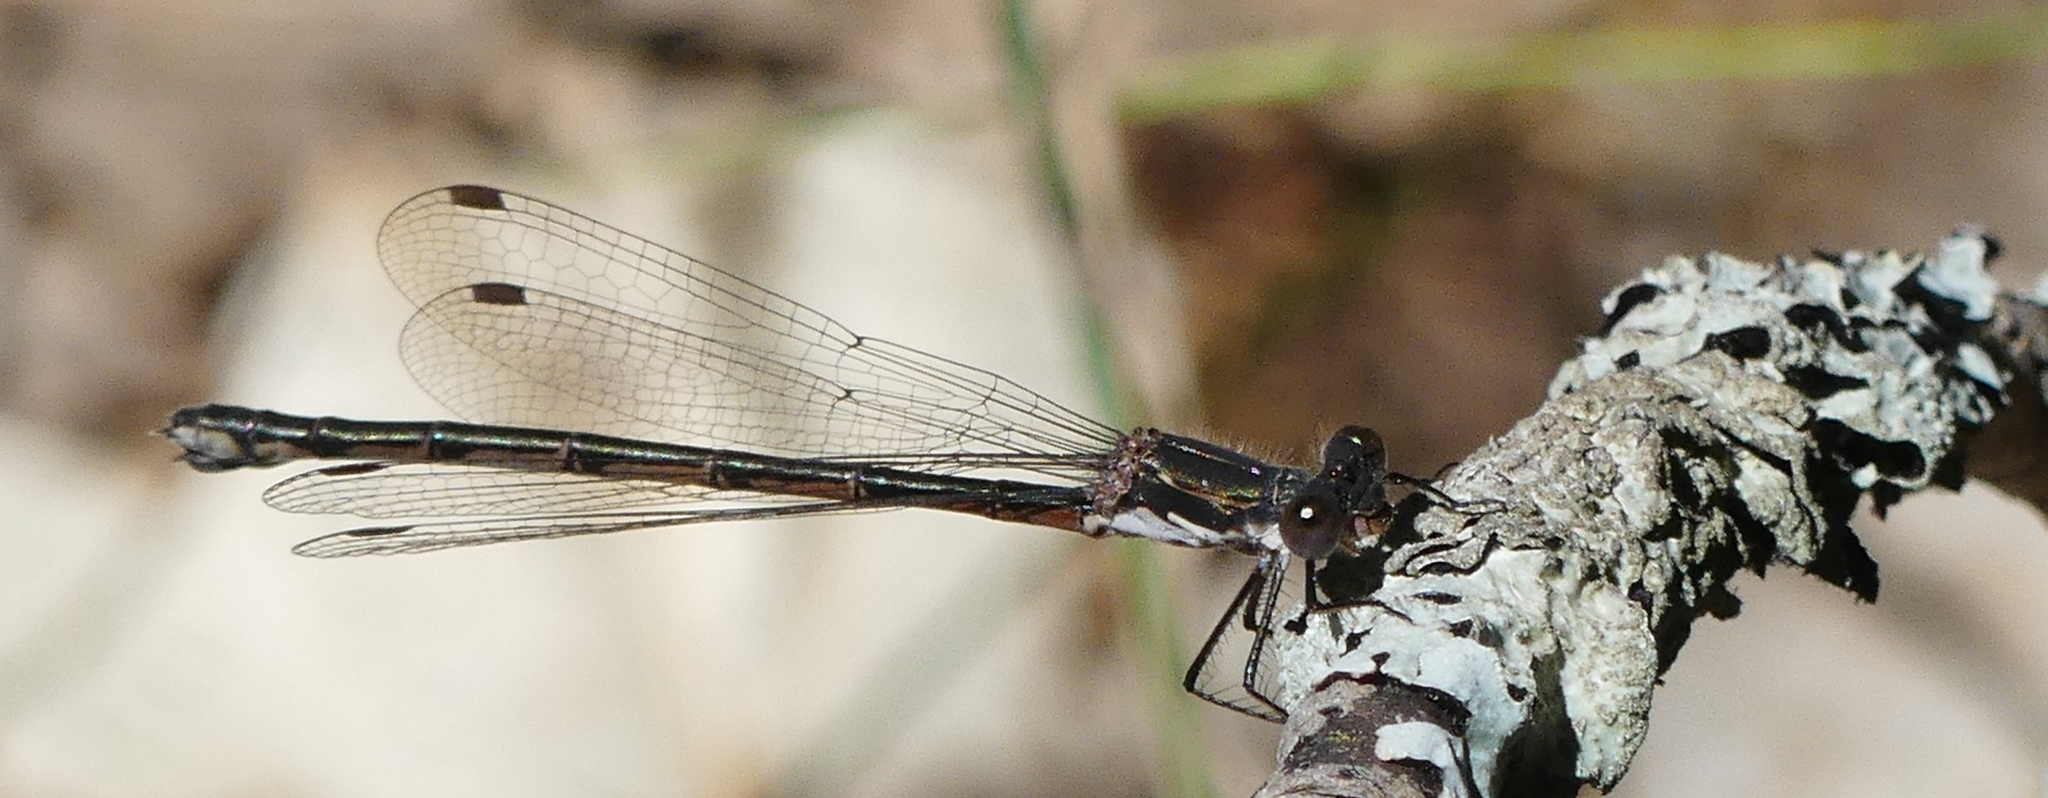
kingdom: Animalia
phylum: Arthropoda
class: Insecta
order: Odonata
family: Lestidae
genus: Lestes
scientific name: Lestes congener
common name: Spotted spreadwing
